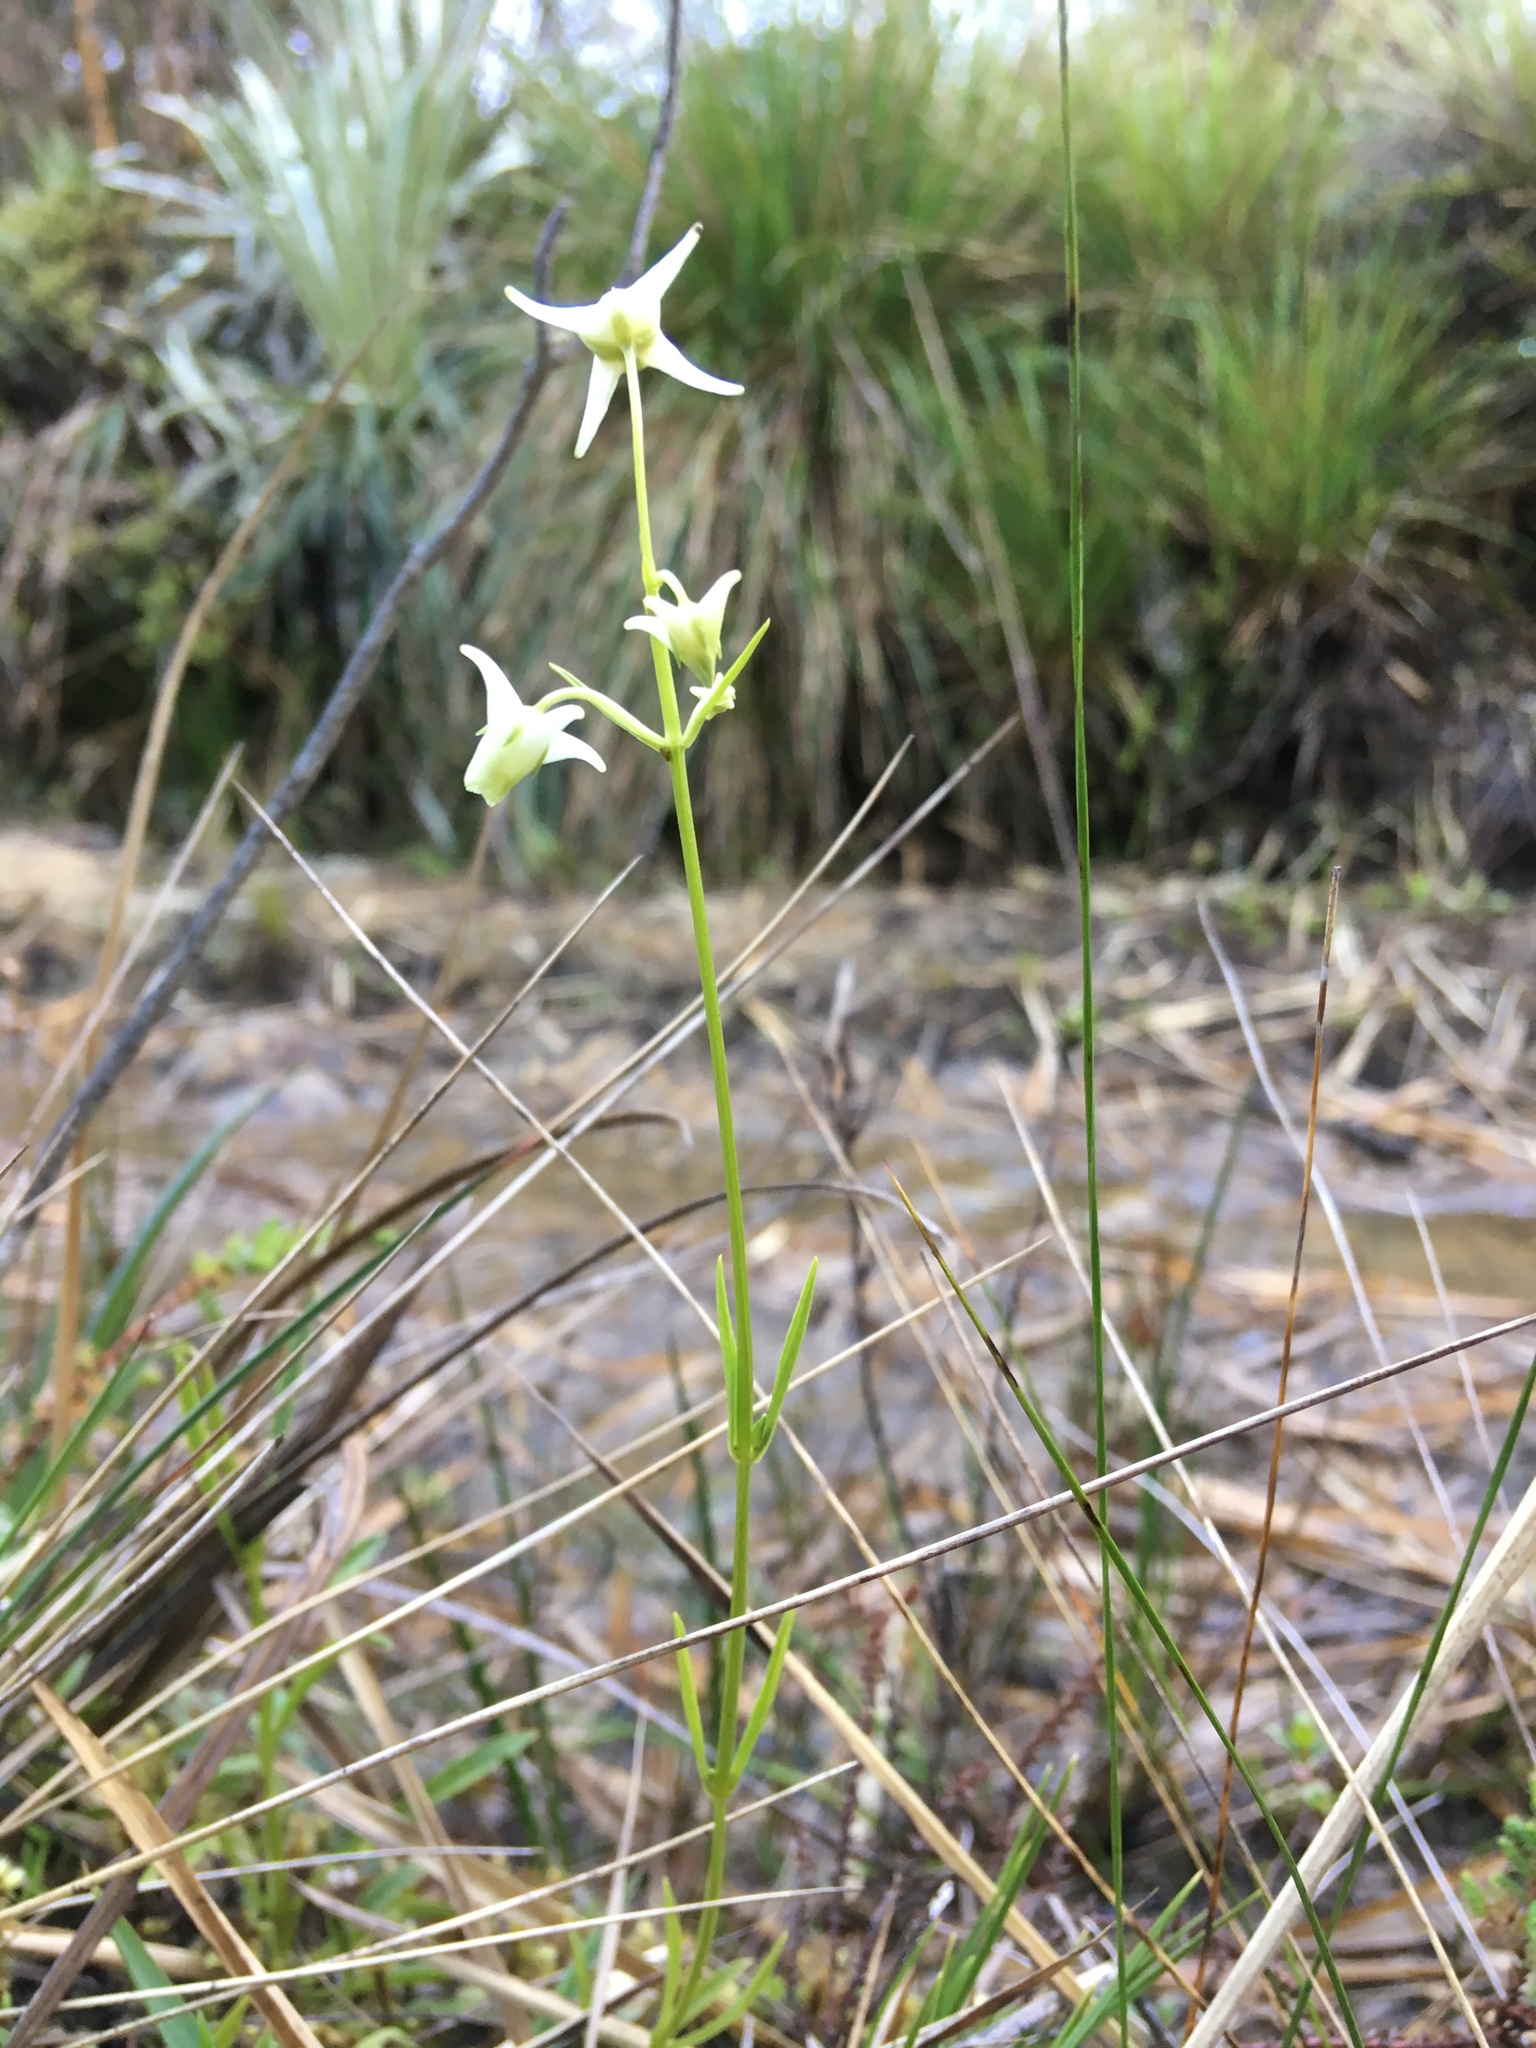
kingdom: Plantae
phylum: Tracheophyta
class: Magnoliopsida
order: Gentianales
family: Gentianaceae
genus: Halenia
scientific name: Halenia major
